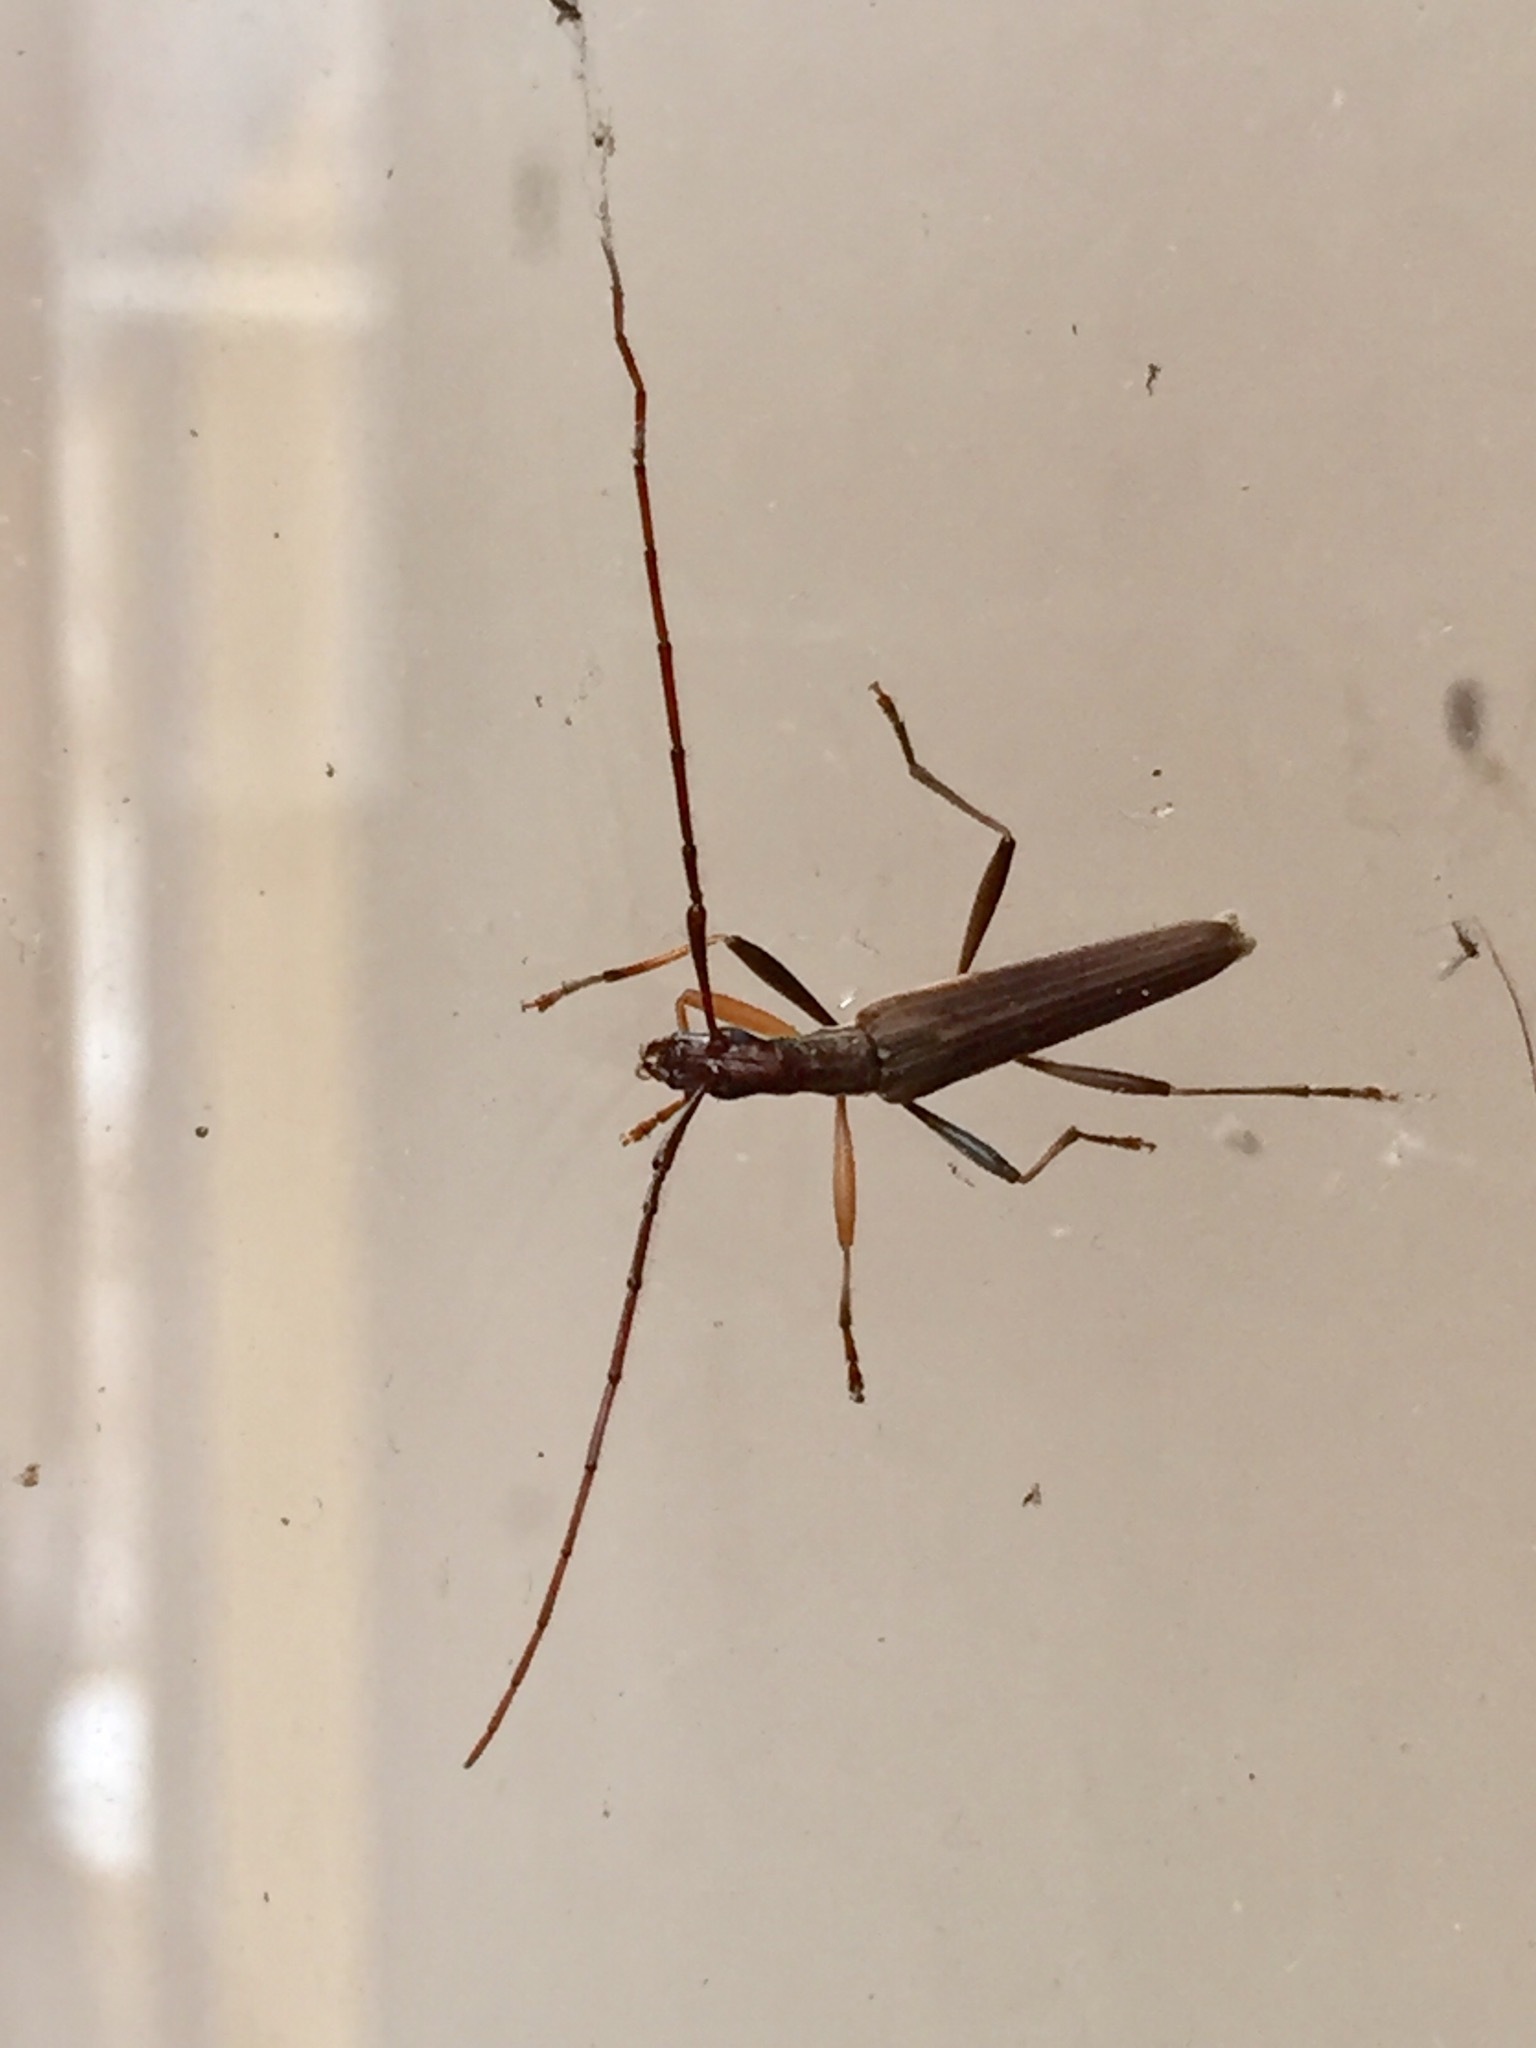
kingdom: Animalia
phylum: Arthropoda
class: Insecta
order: Coleoptera
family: Cerambycidae
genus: Stenopotes
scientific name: Stenopotes pallidus
